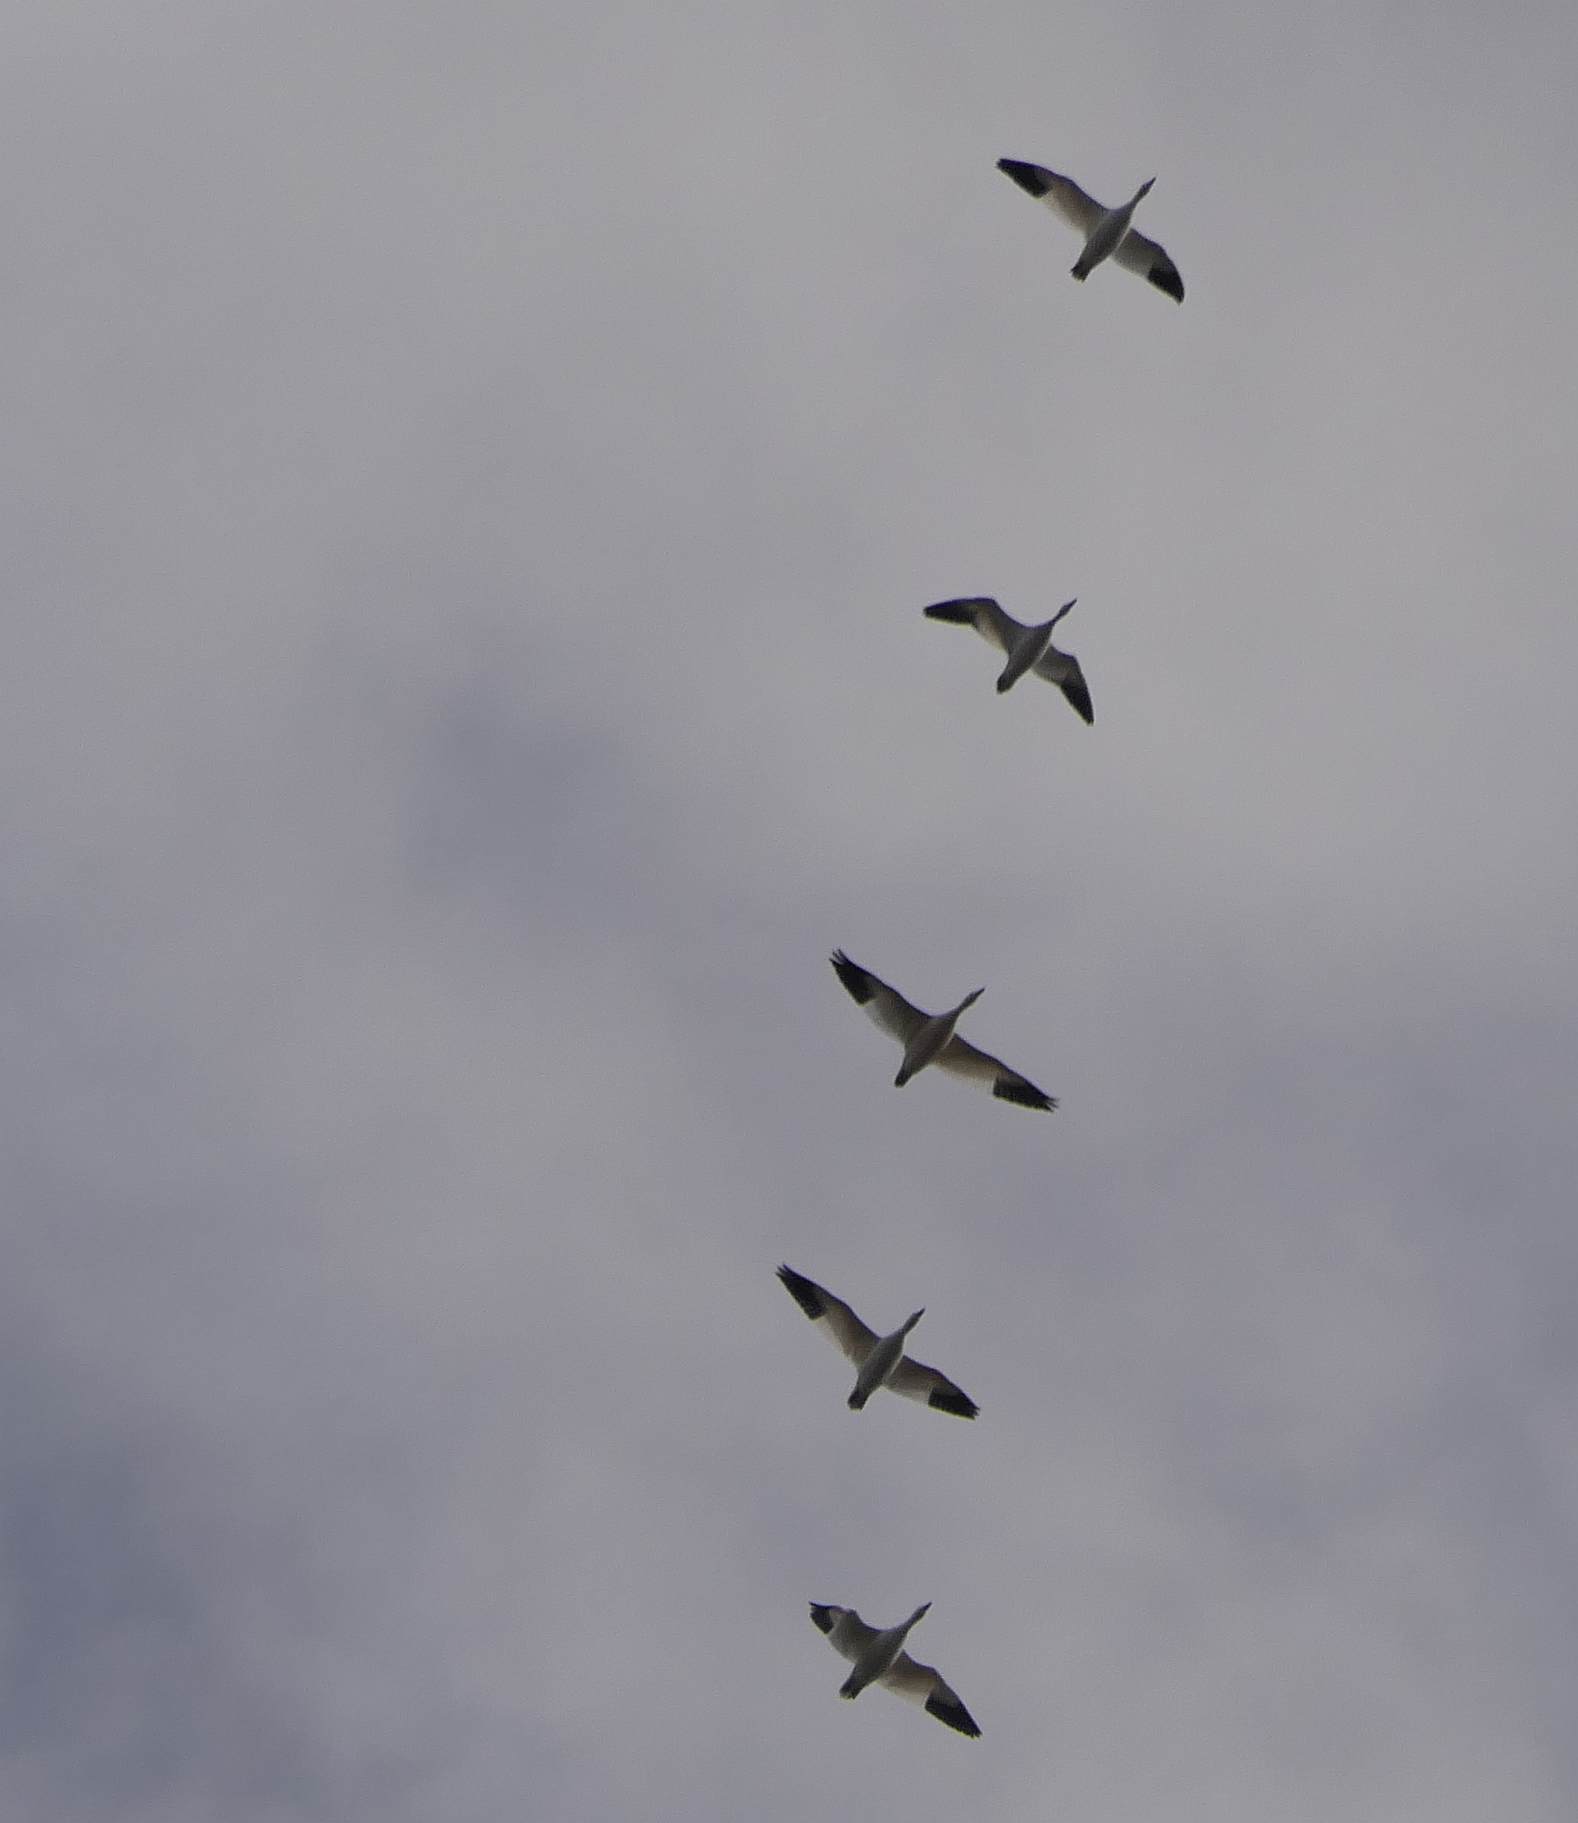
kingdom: Animalia
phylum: Chordata
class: Aves
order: Anseriformes
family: Anatidae
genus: Anser
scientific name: Anser caerulescens
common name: Snow goose
